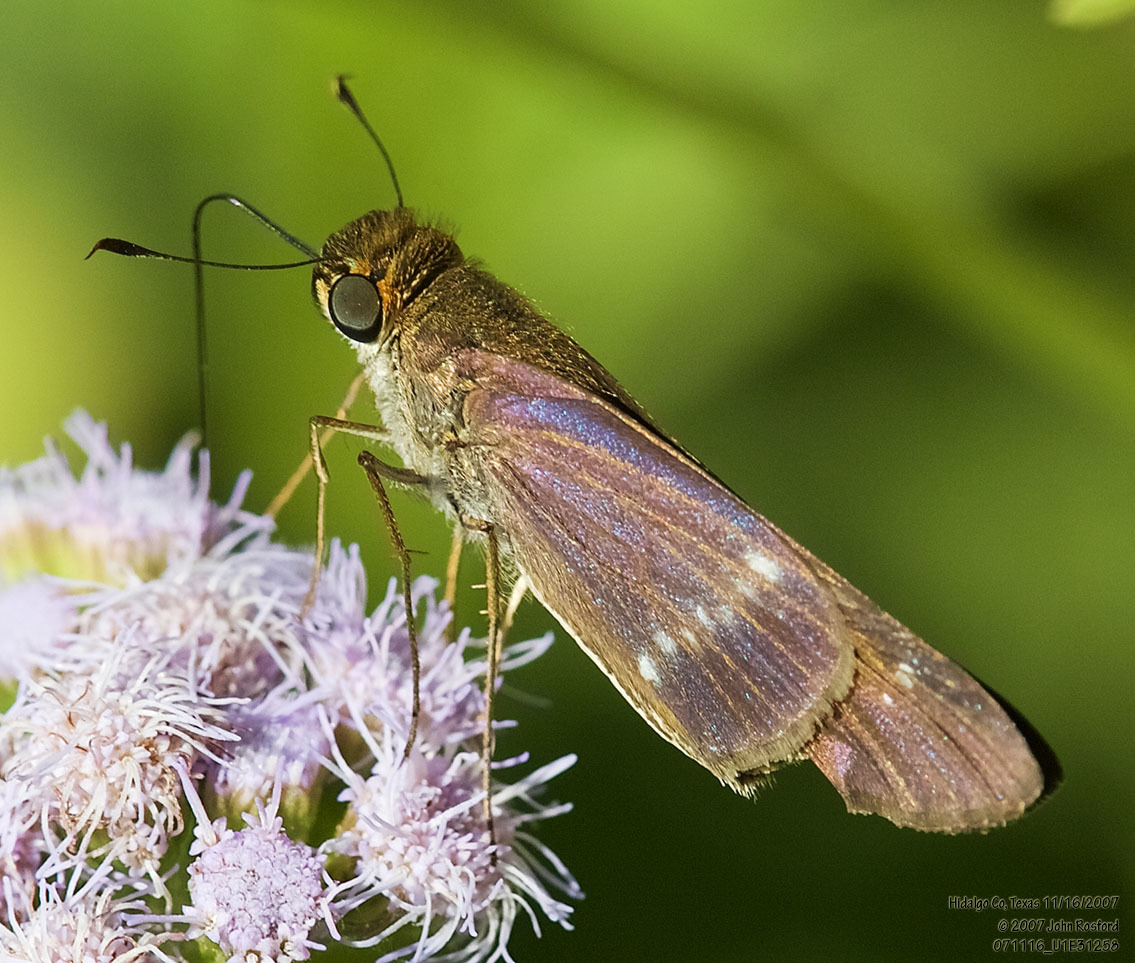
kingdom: Animalia
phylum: Arthropoda
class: Insecta
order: Lepidoptera
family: Hesperiidae
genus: Turesis
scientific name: Turesis lucas
